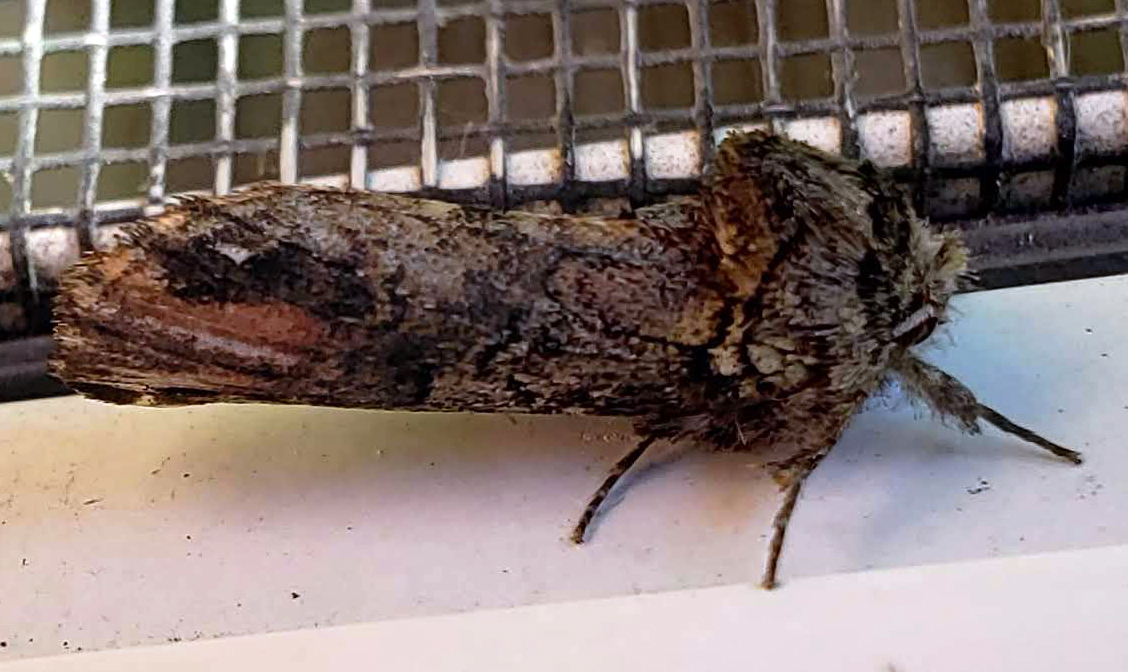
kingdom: Animalia
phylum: Arthropoda
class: Insecta
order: Lepidoptera
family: Notodontidae
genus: Schizura
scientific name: Schizura
